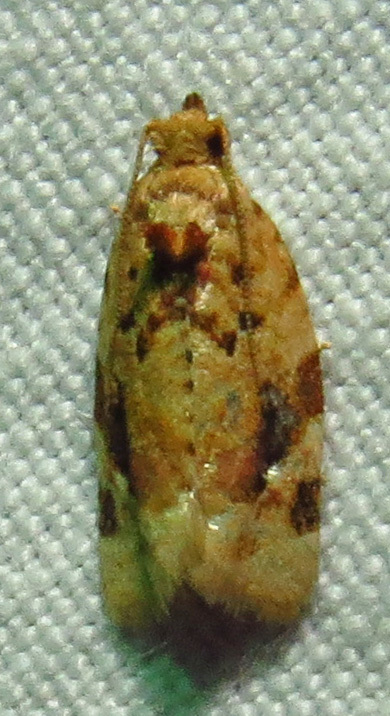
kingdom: Animalia
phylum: Arthropoda
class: Insecta
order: Lepidoptera
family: Tortricidae
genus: Argyrotaenia
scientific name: Argyrotaenia velutinana
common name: Red-banded leafroller moth
